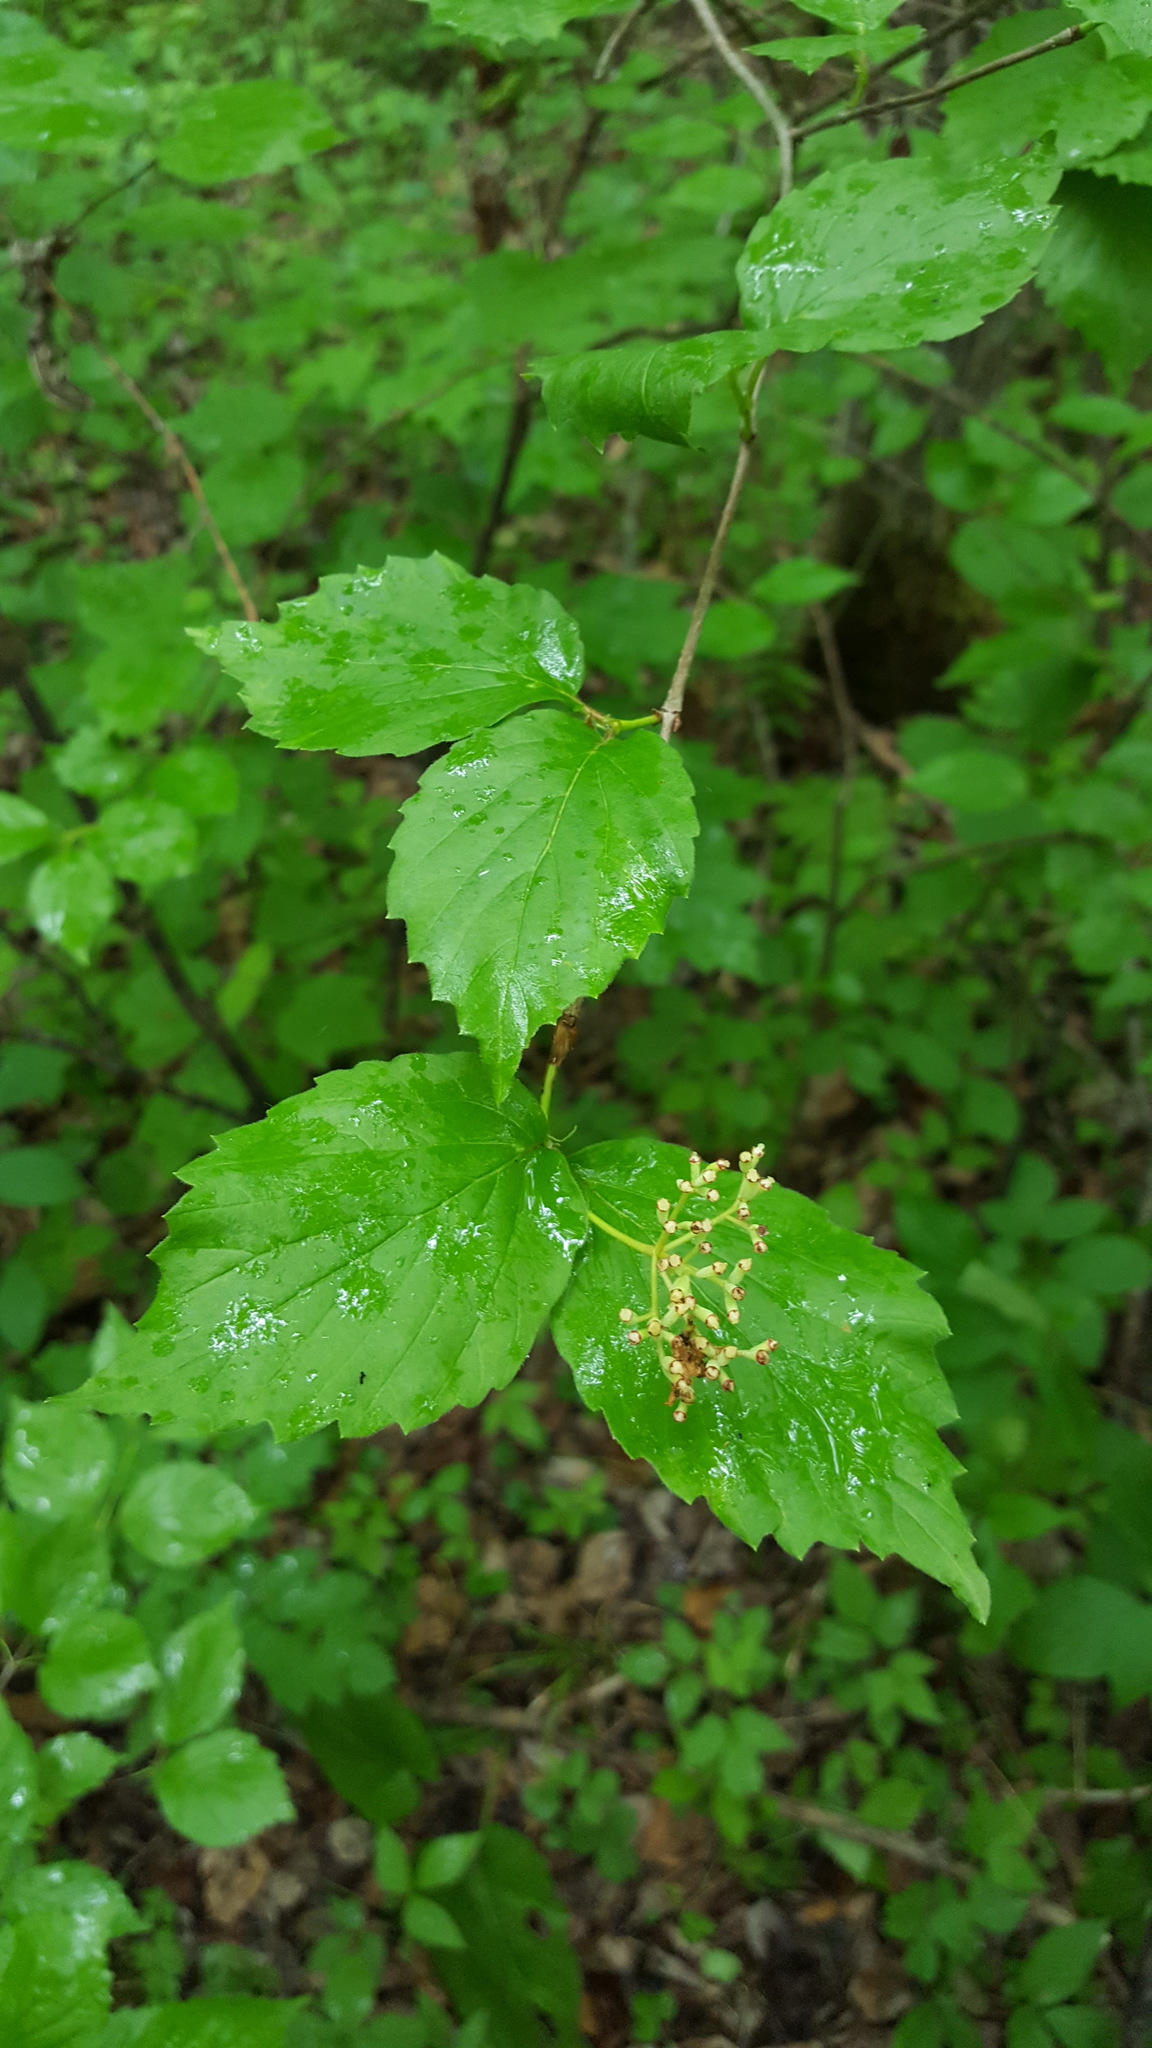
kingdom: Plantae
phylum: Tracheophyta
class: Magnoliopsida
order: Dipsacales
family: Viburnaceae
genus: Viburnum
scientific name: Viburnum rafinesqueanum
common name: Downy arrow-wood
